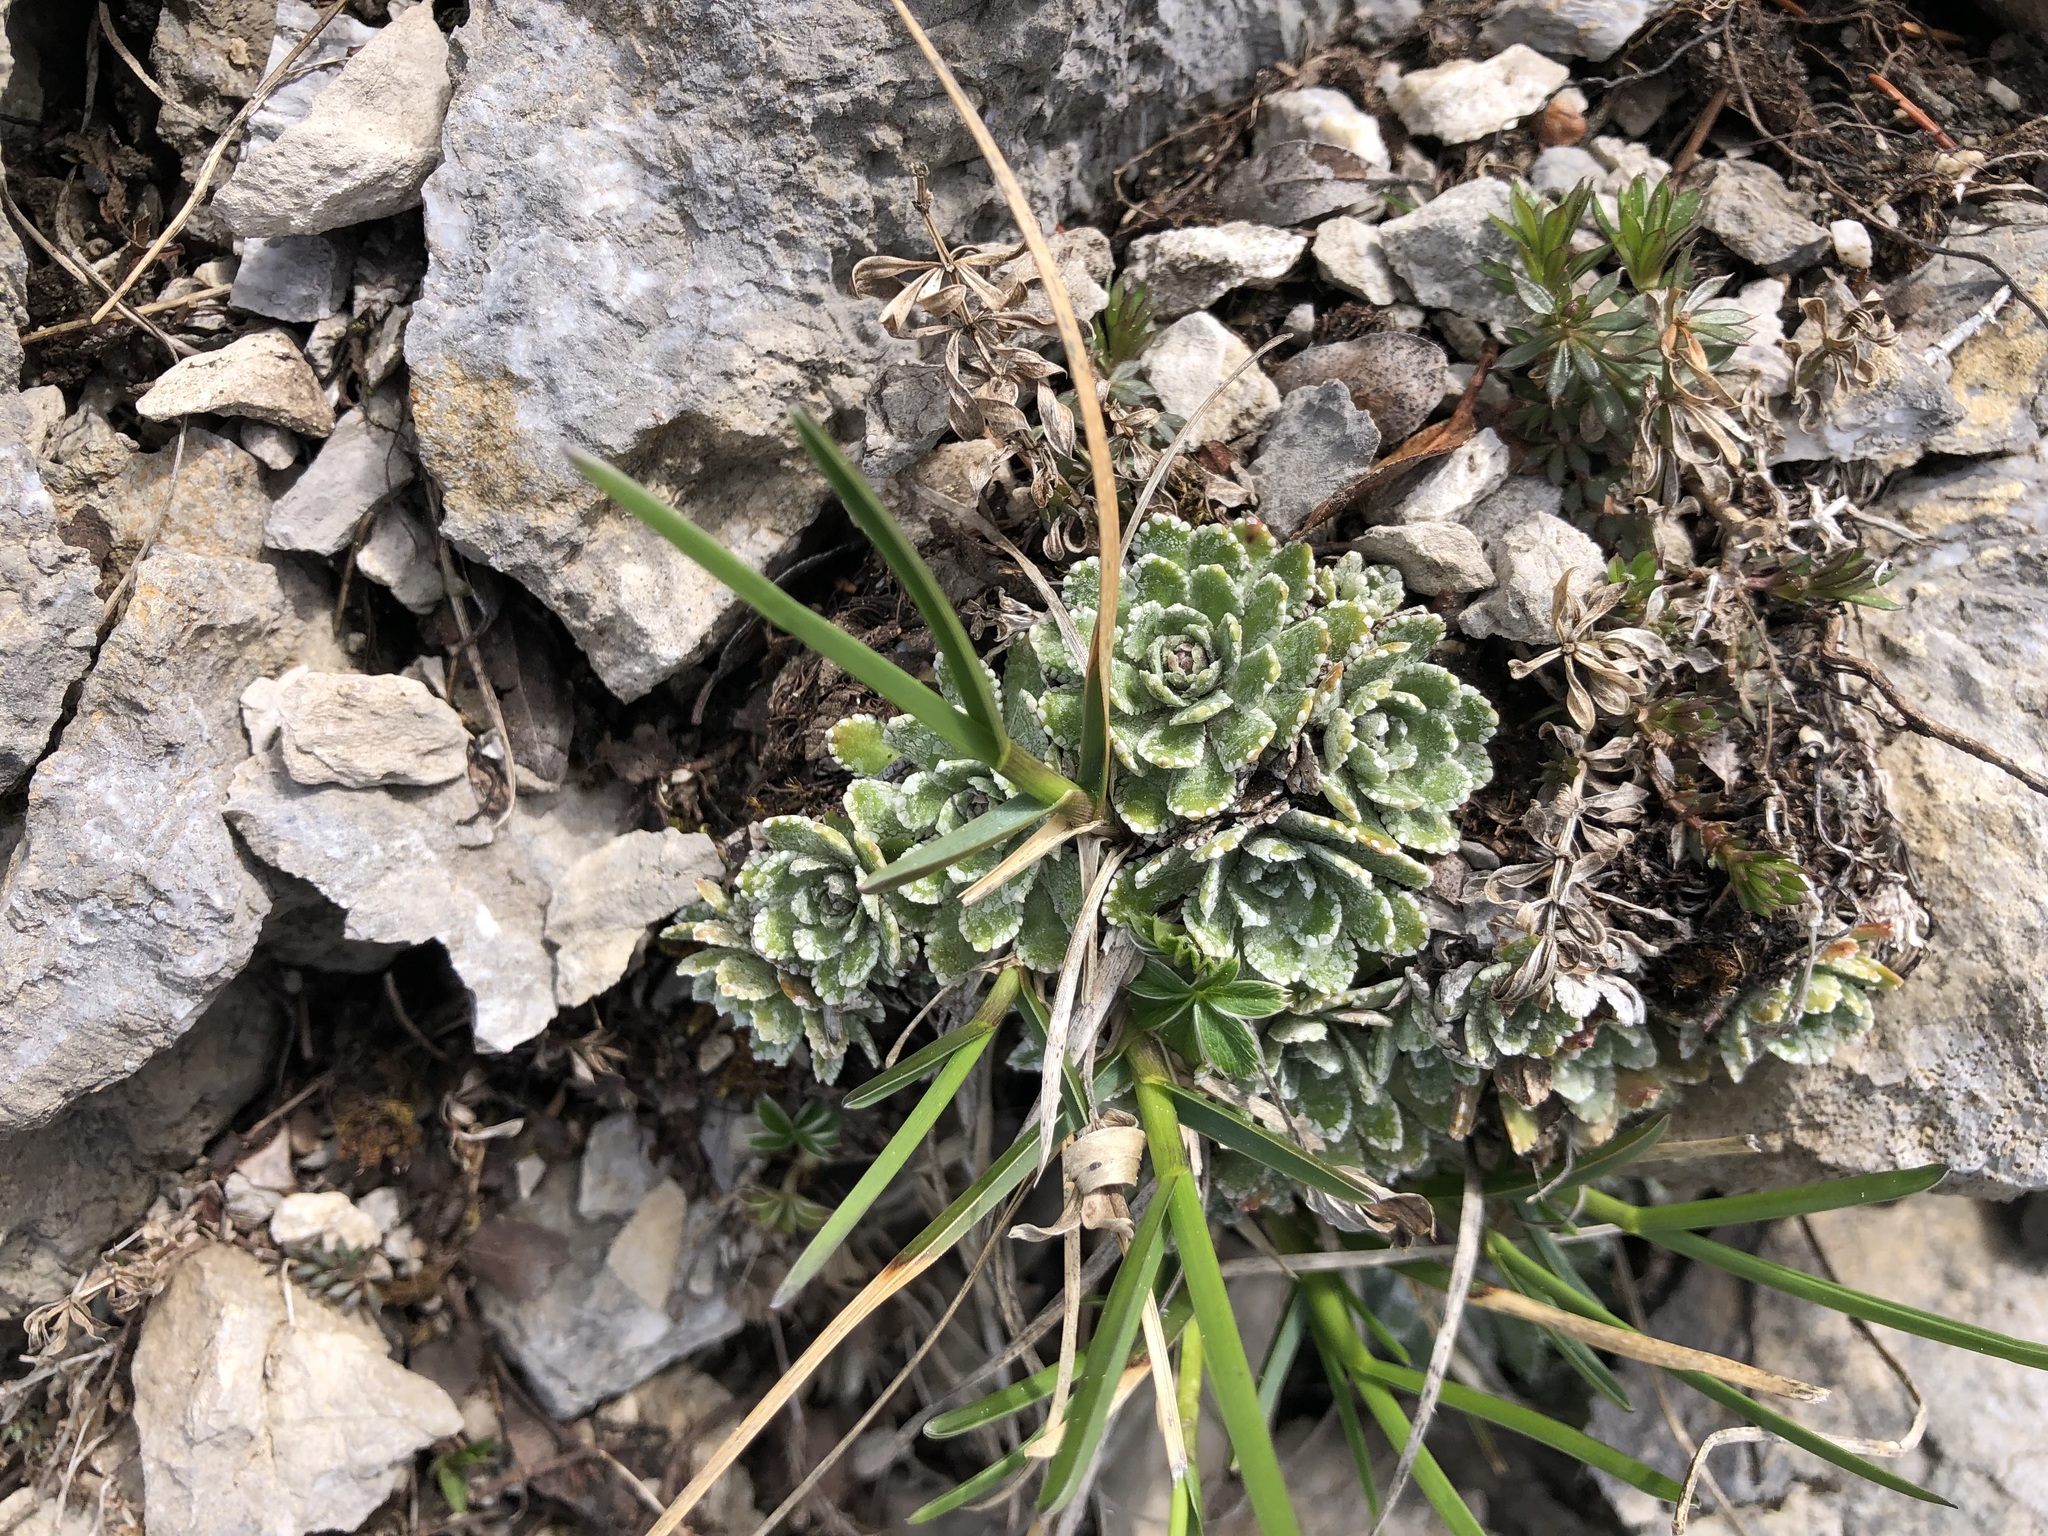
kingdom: Plantae
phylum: Tracheophyta
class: Magnoliopsida
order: Saxifragales
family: Saxifragaceae
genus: Saxifraga
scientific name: Saxifraga paniculata
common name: Livelong saxifrage
